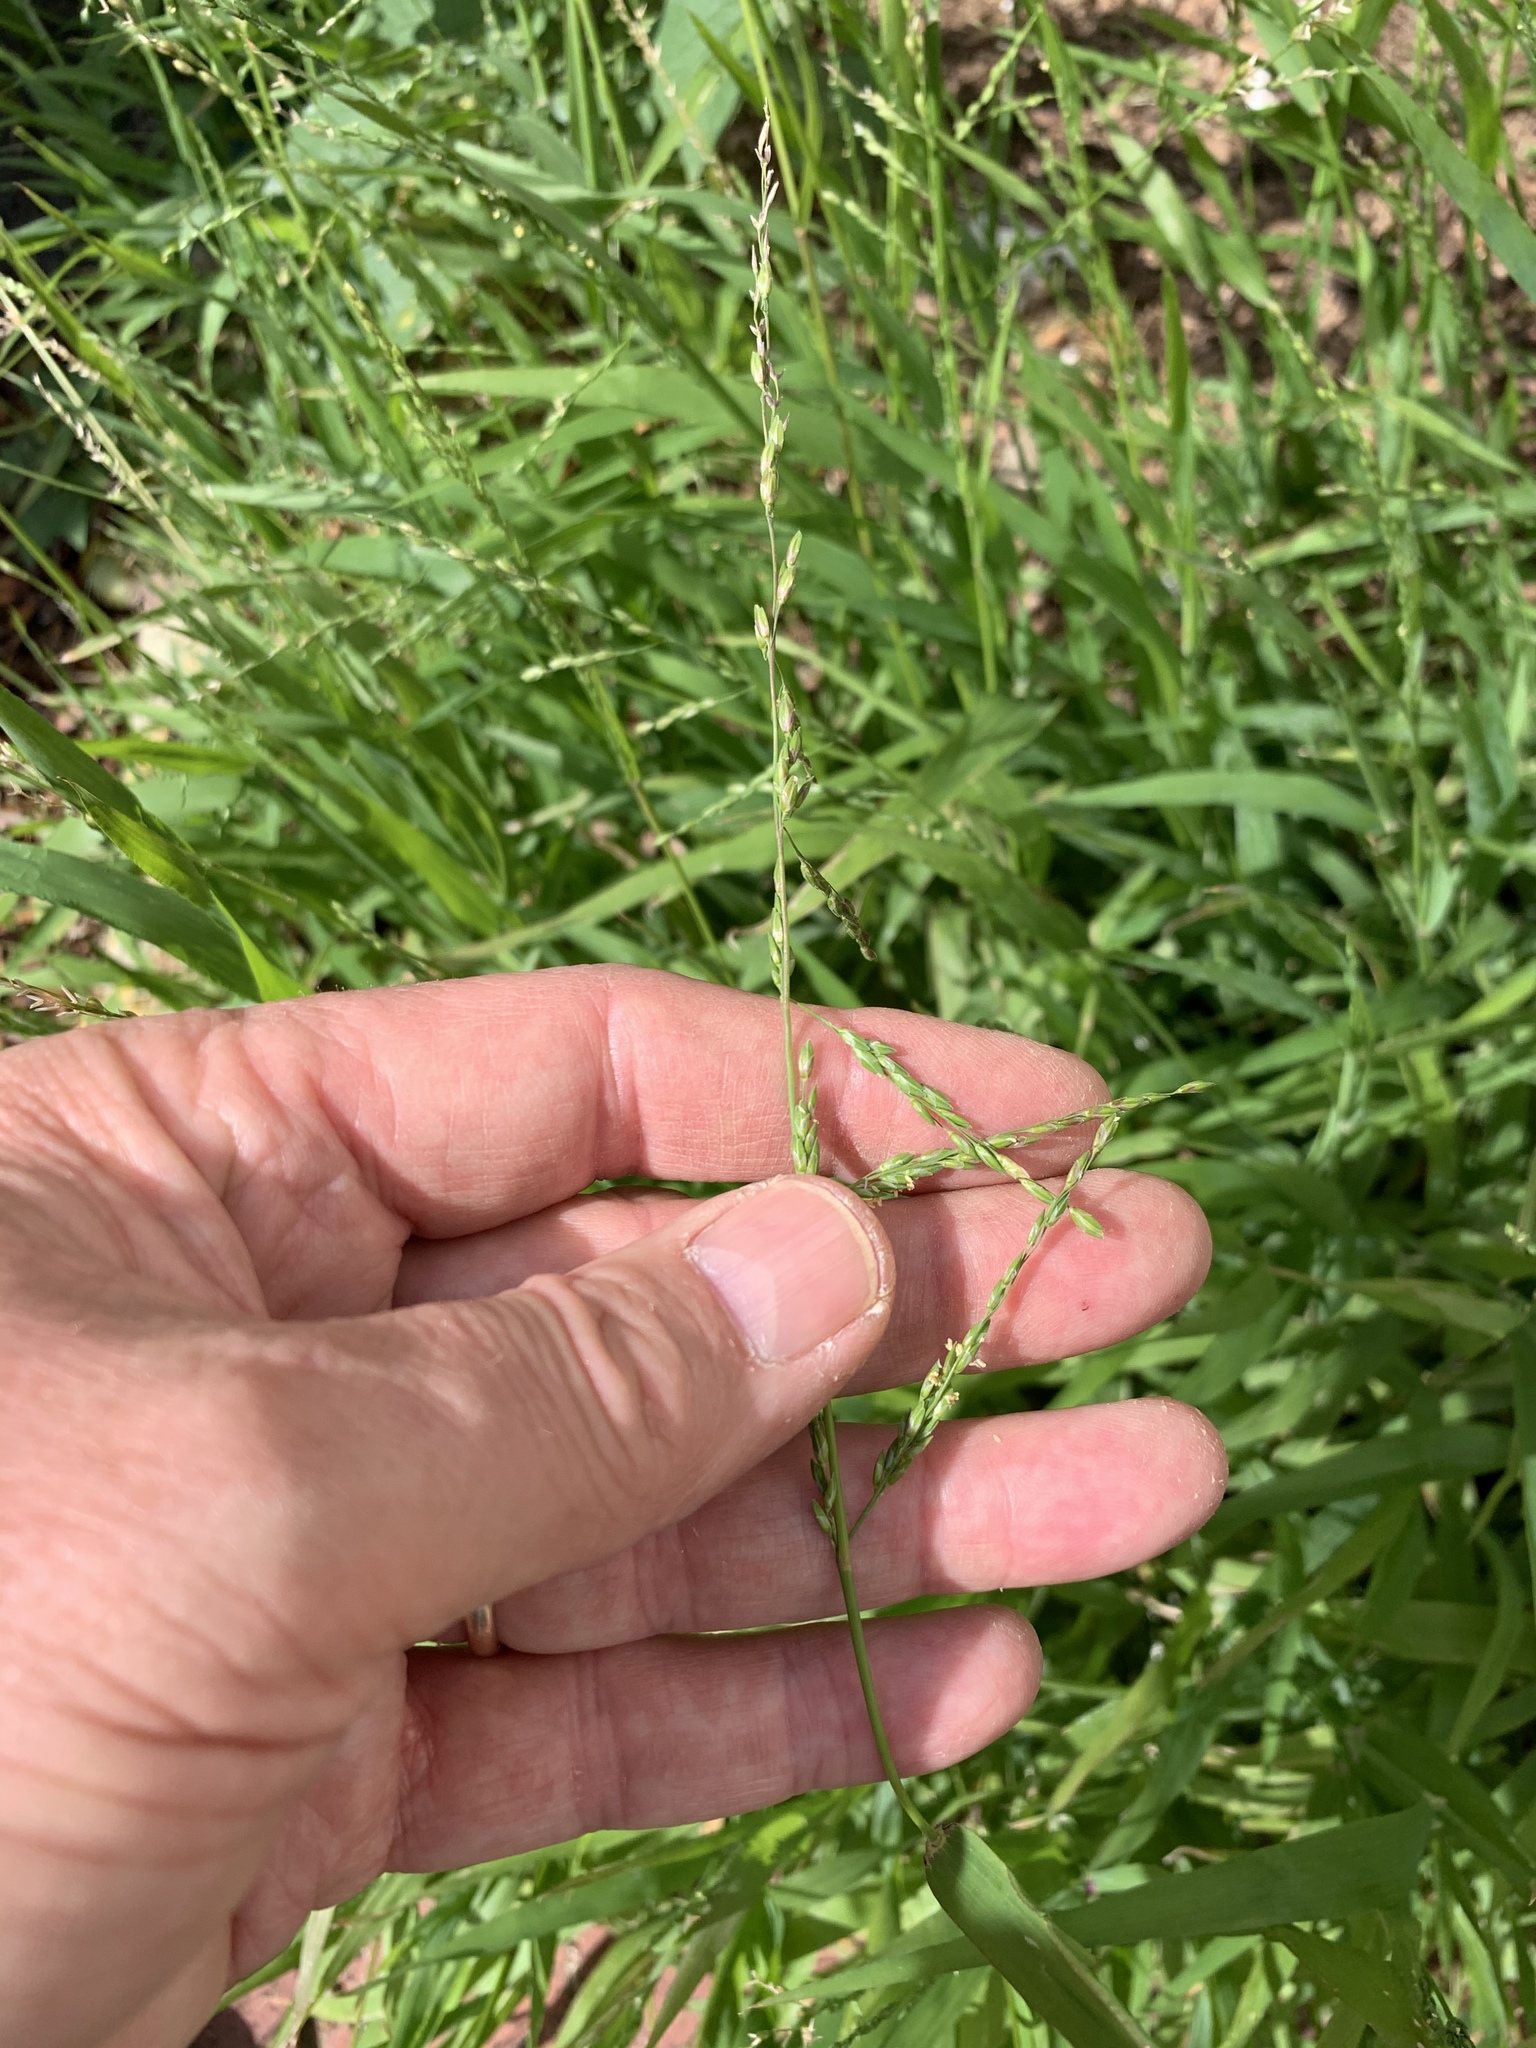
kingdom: Plantae
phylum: Tracheophyta
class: Liliopsida
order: Poales
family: Poaceae
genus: Ehrharta
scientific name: Ehrharta erecta
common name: Panic veldtgrass
